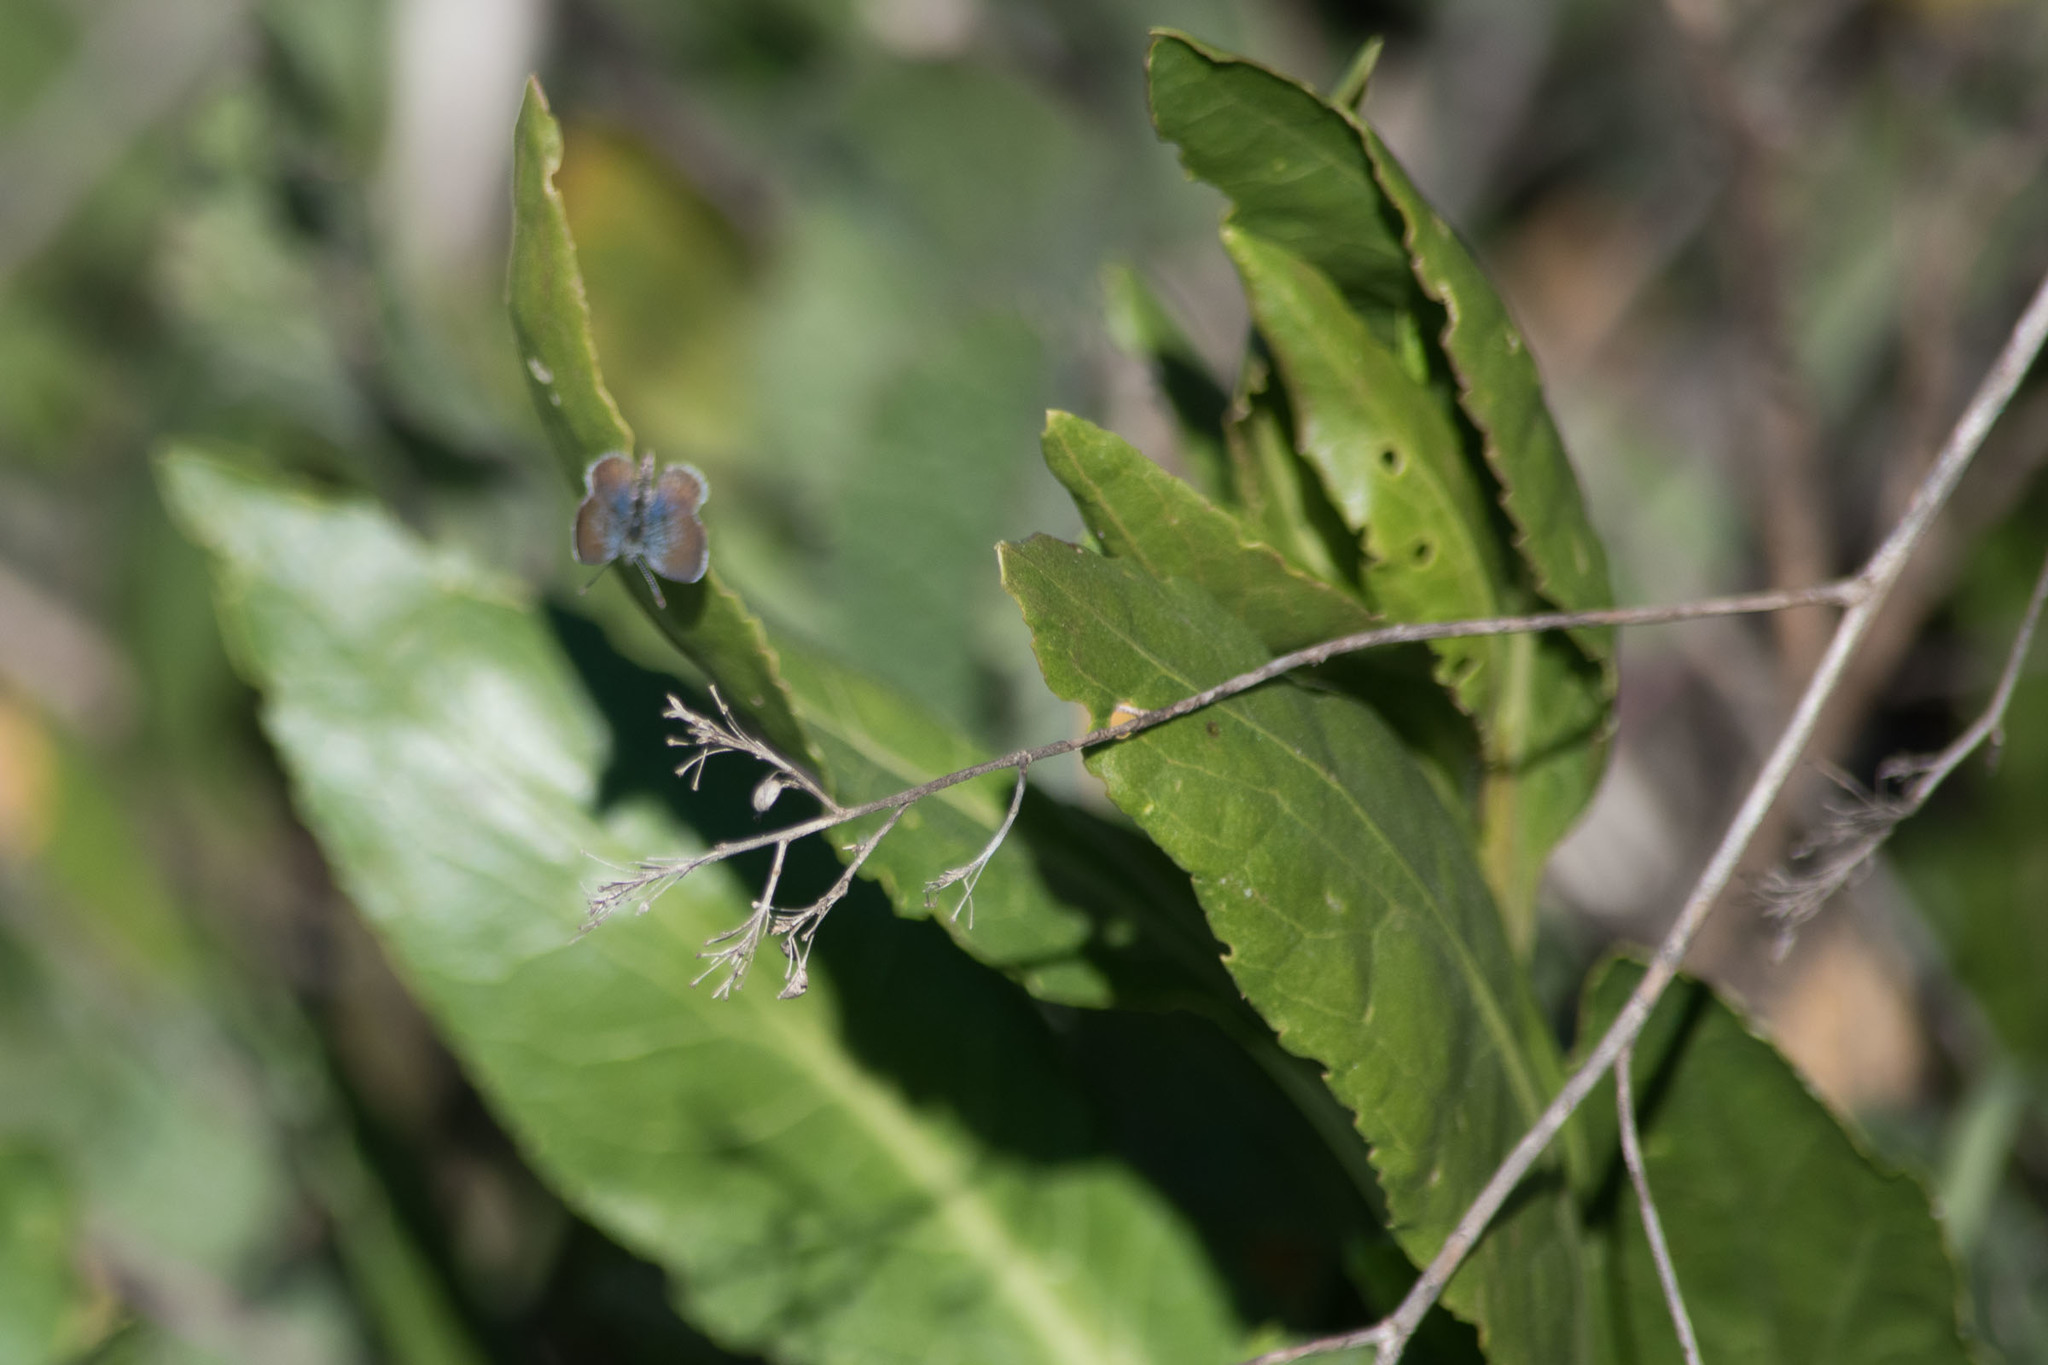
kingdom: Animalia
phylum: Arthropoda
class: Insecta
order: Lepidoptera
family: Lycaenidae
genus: Brephidium
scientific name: Brephidium exilis
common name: Pygmy blue
